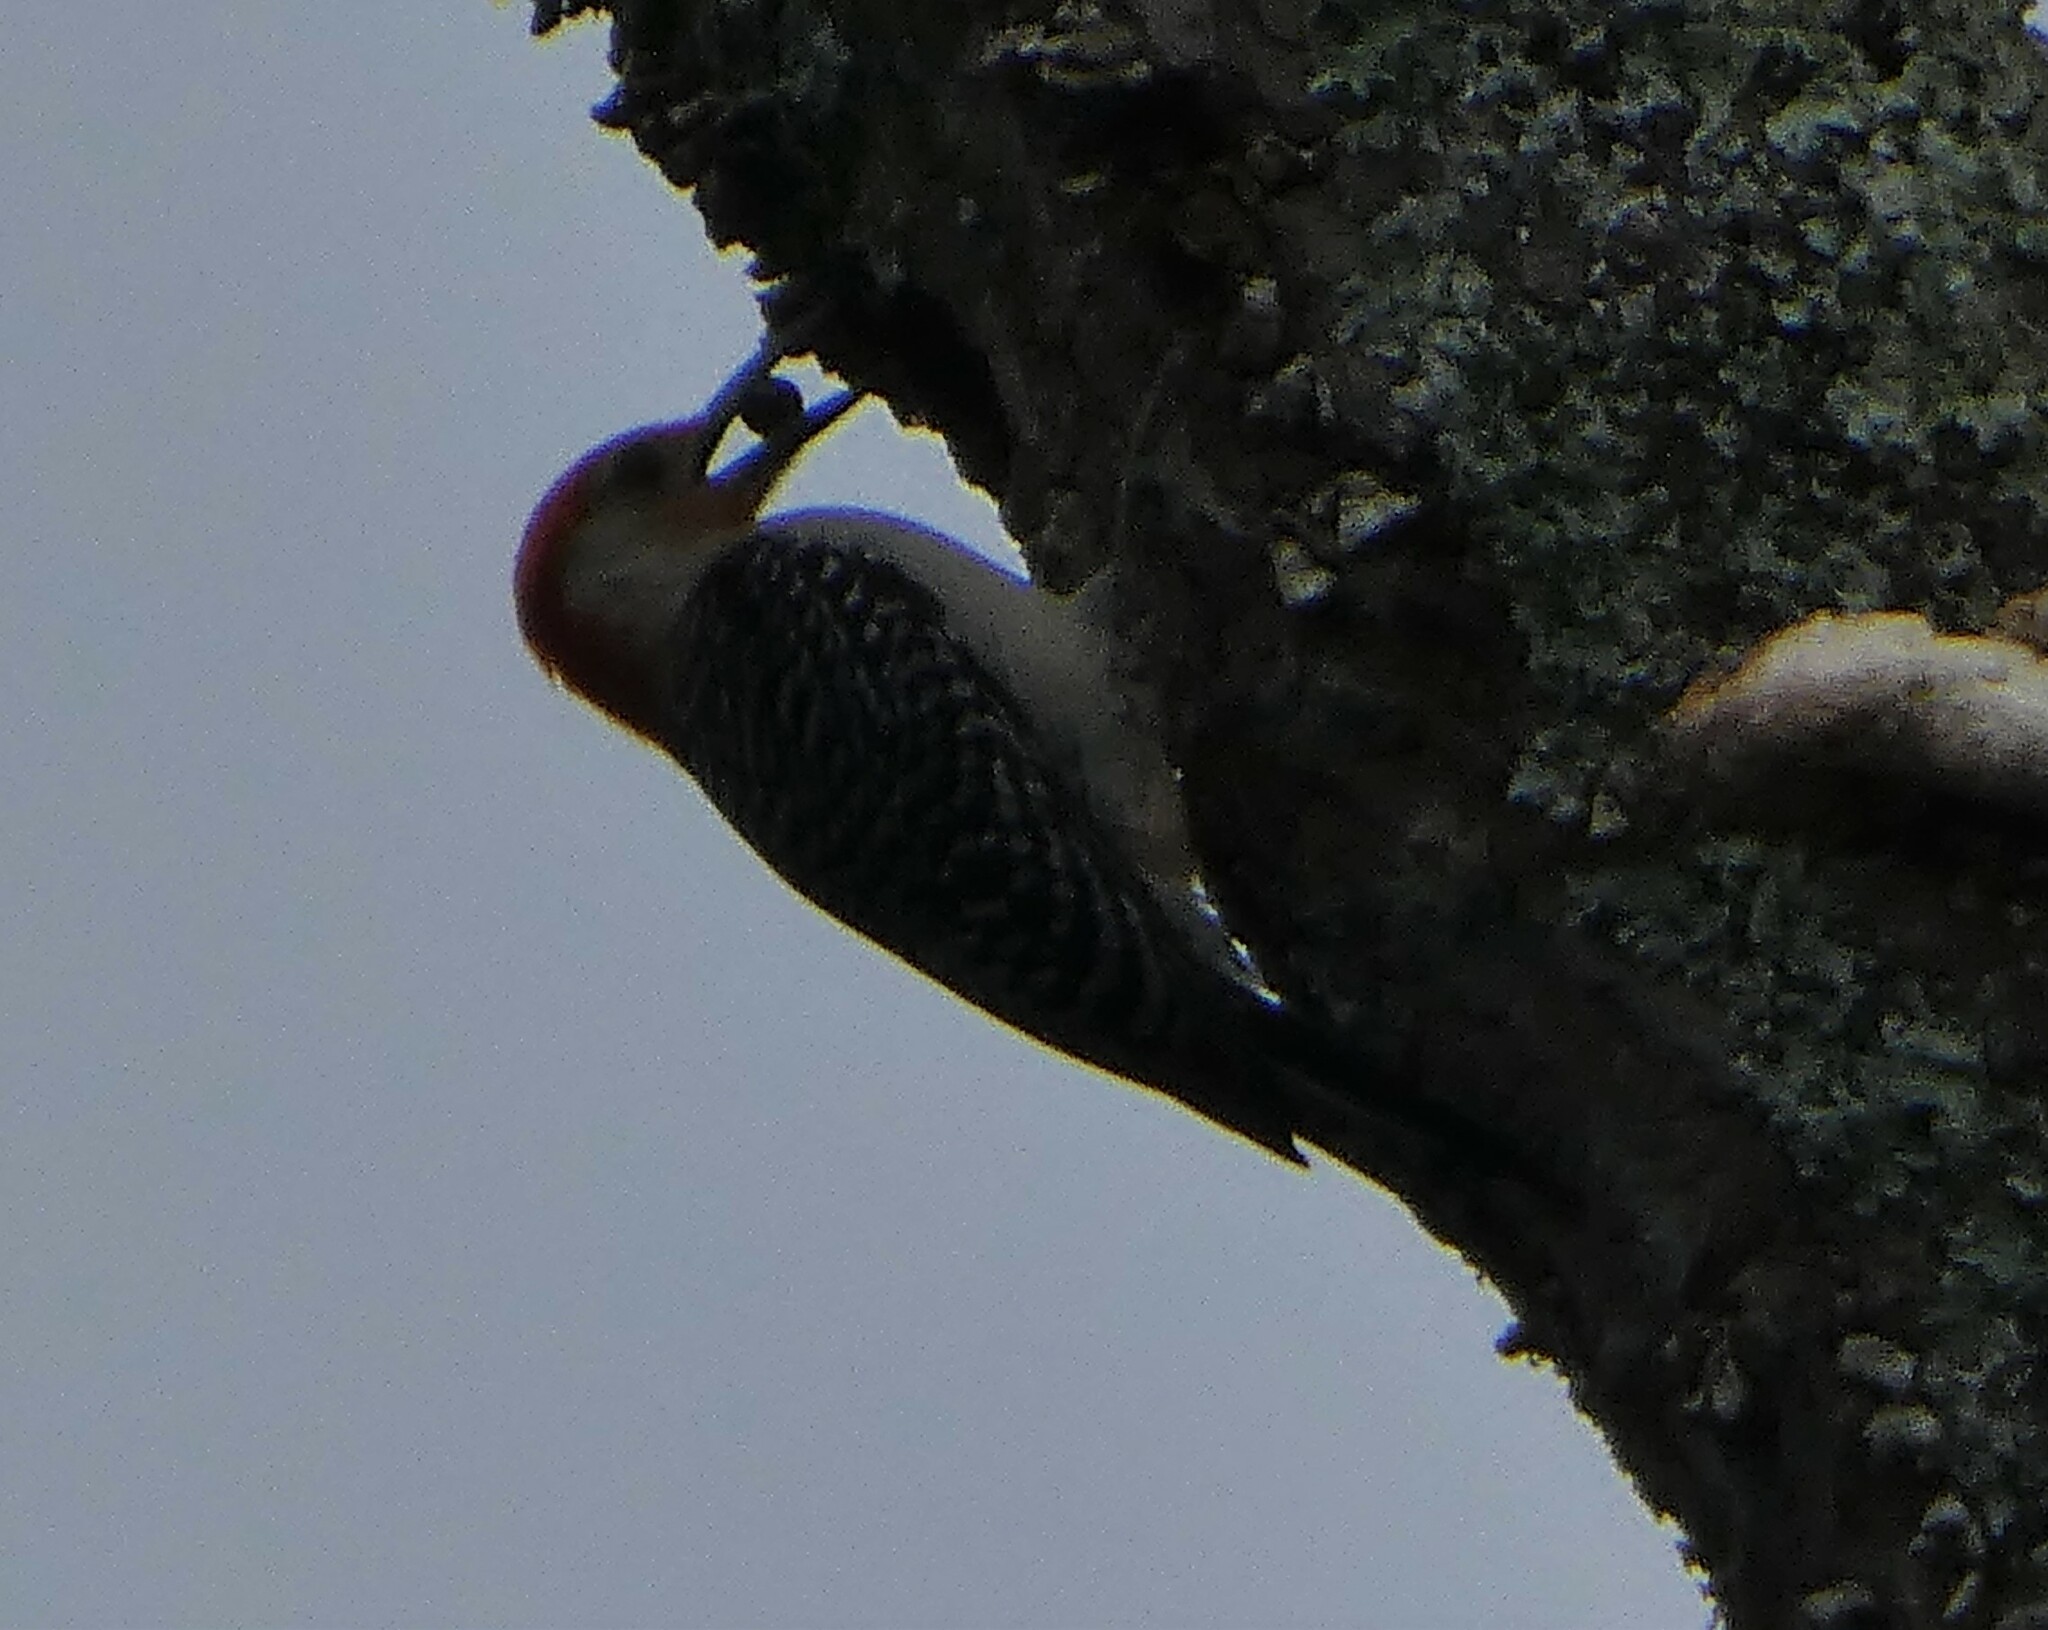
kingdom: Animalia
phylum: Chordata
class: Aves
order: Piciformes
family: Picidae
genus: Melanerpes
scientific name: Melanerpes carolinus
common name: Red-bellied woodpecker
